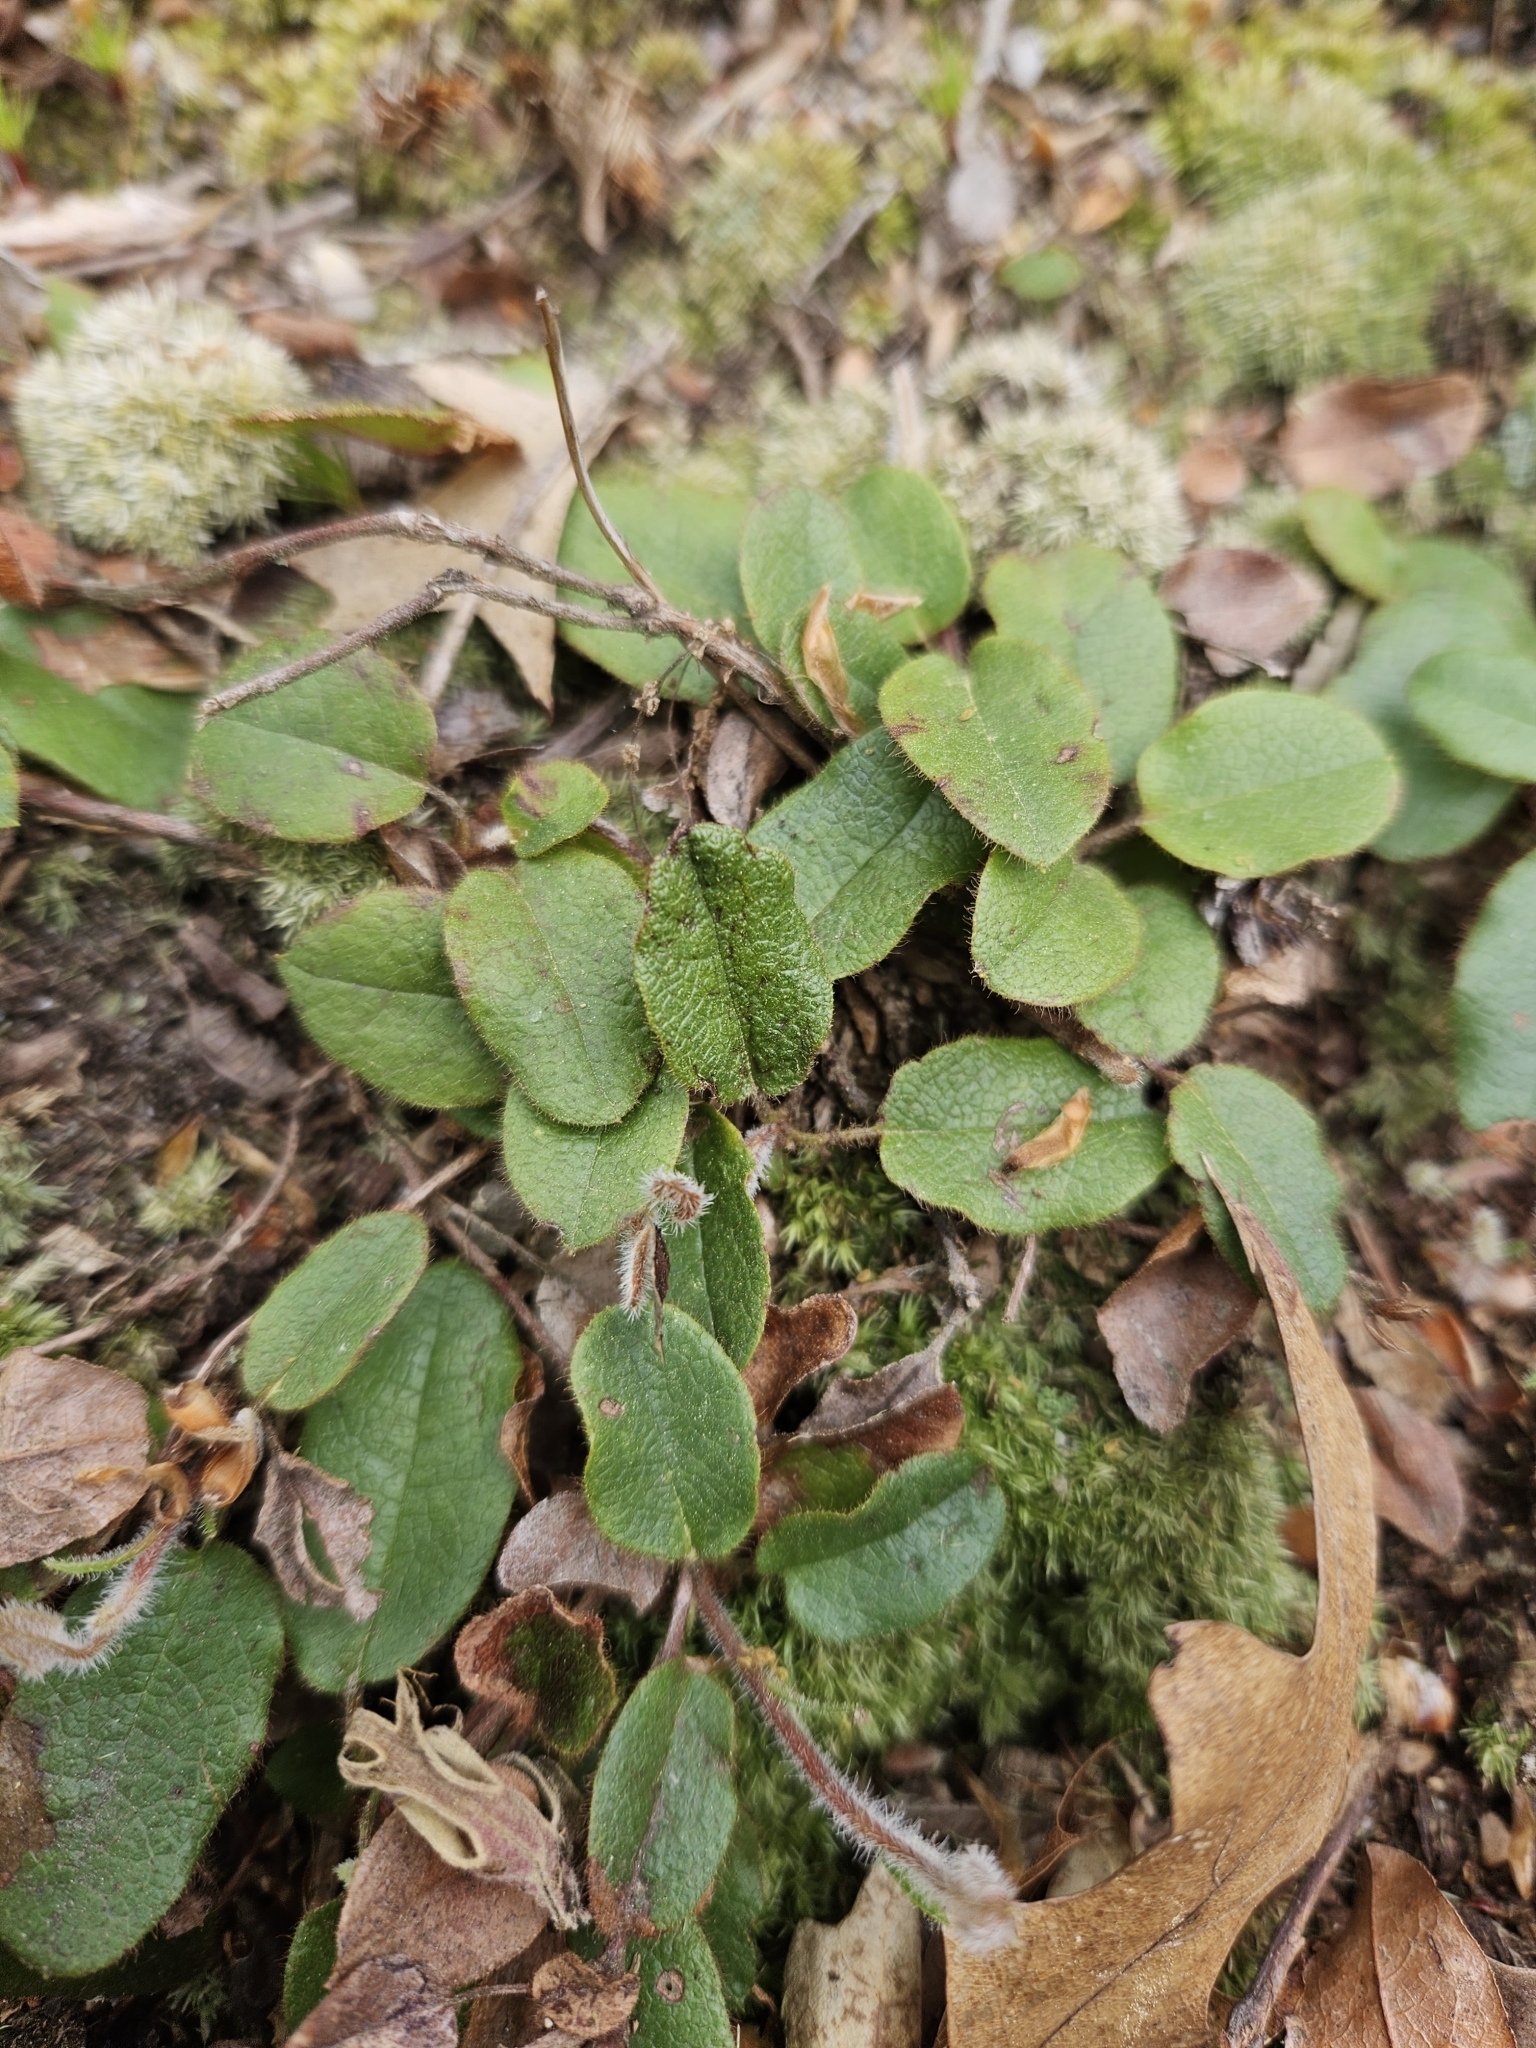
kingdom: Plantae
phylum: Tracheophyta
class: Magnoliopsida
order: Ericales
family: Ericaceae
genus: Epigaea
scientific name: Epigaea repens
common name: Gravelroot
